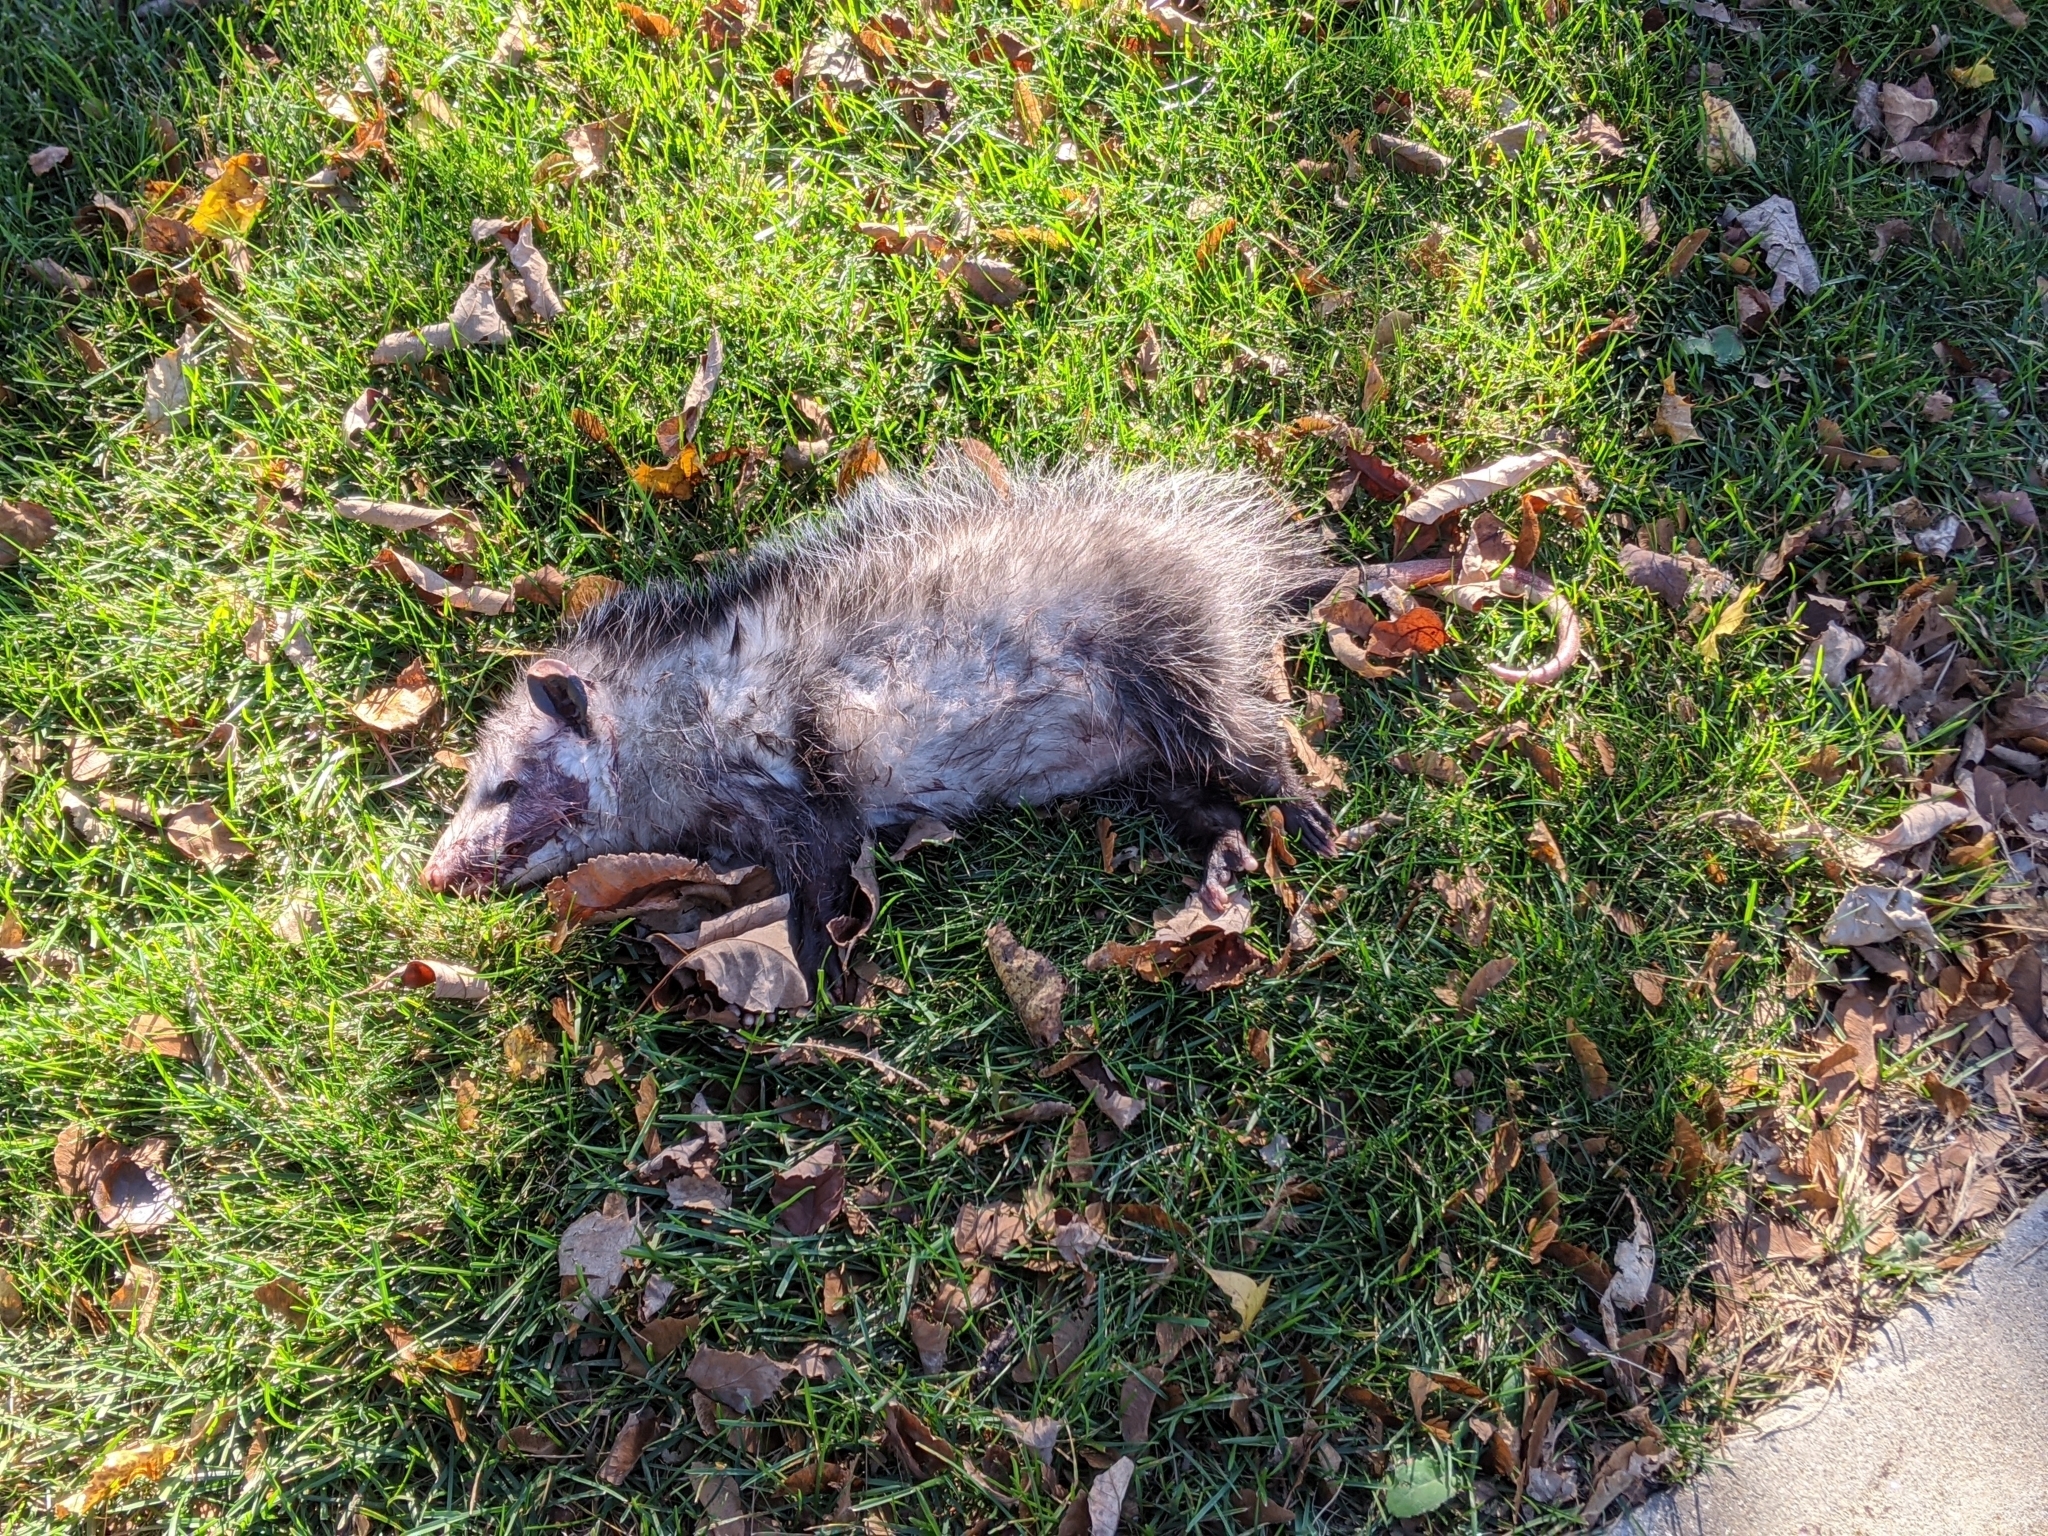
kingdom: Animalia
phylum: Chordata
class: Mammalia
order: Didelphimorphia
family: Didelphidae
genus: Didelphis
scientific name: Didelphis virginiana
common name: Virginia opossum
